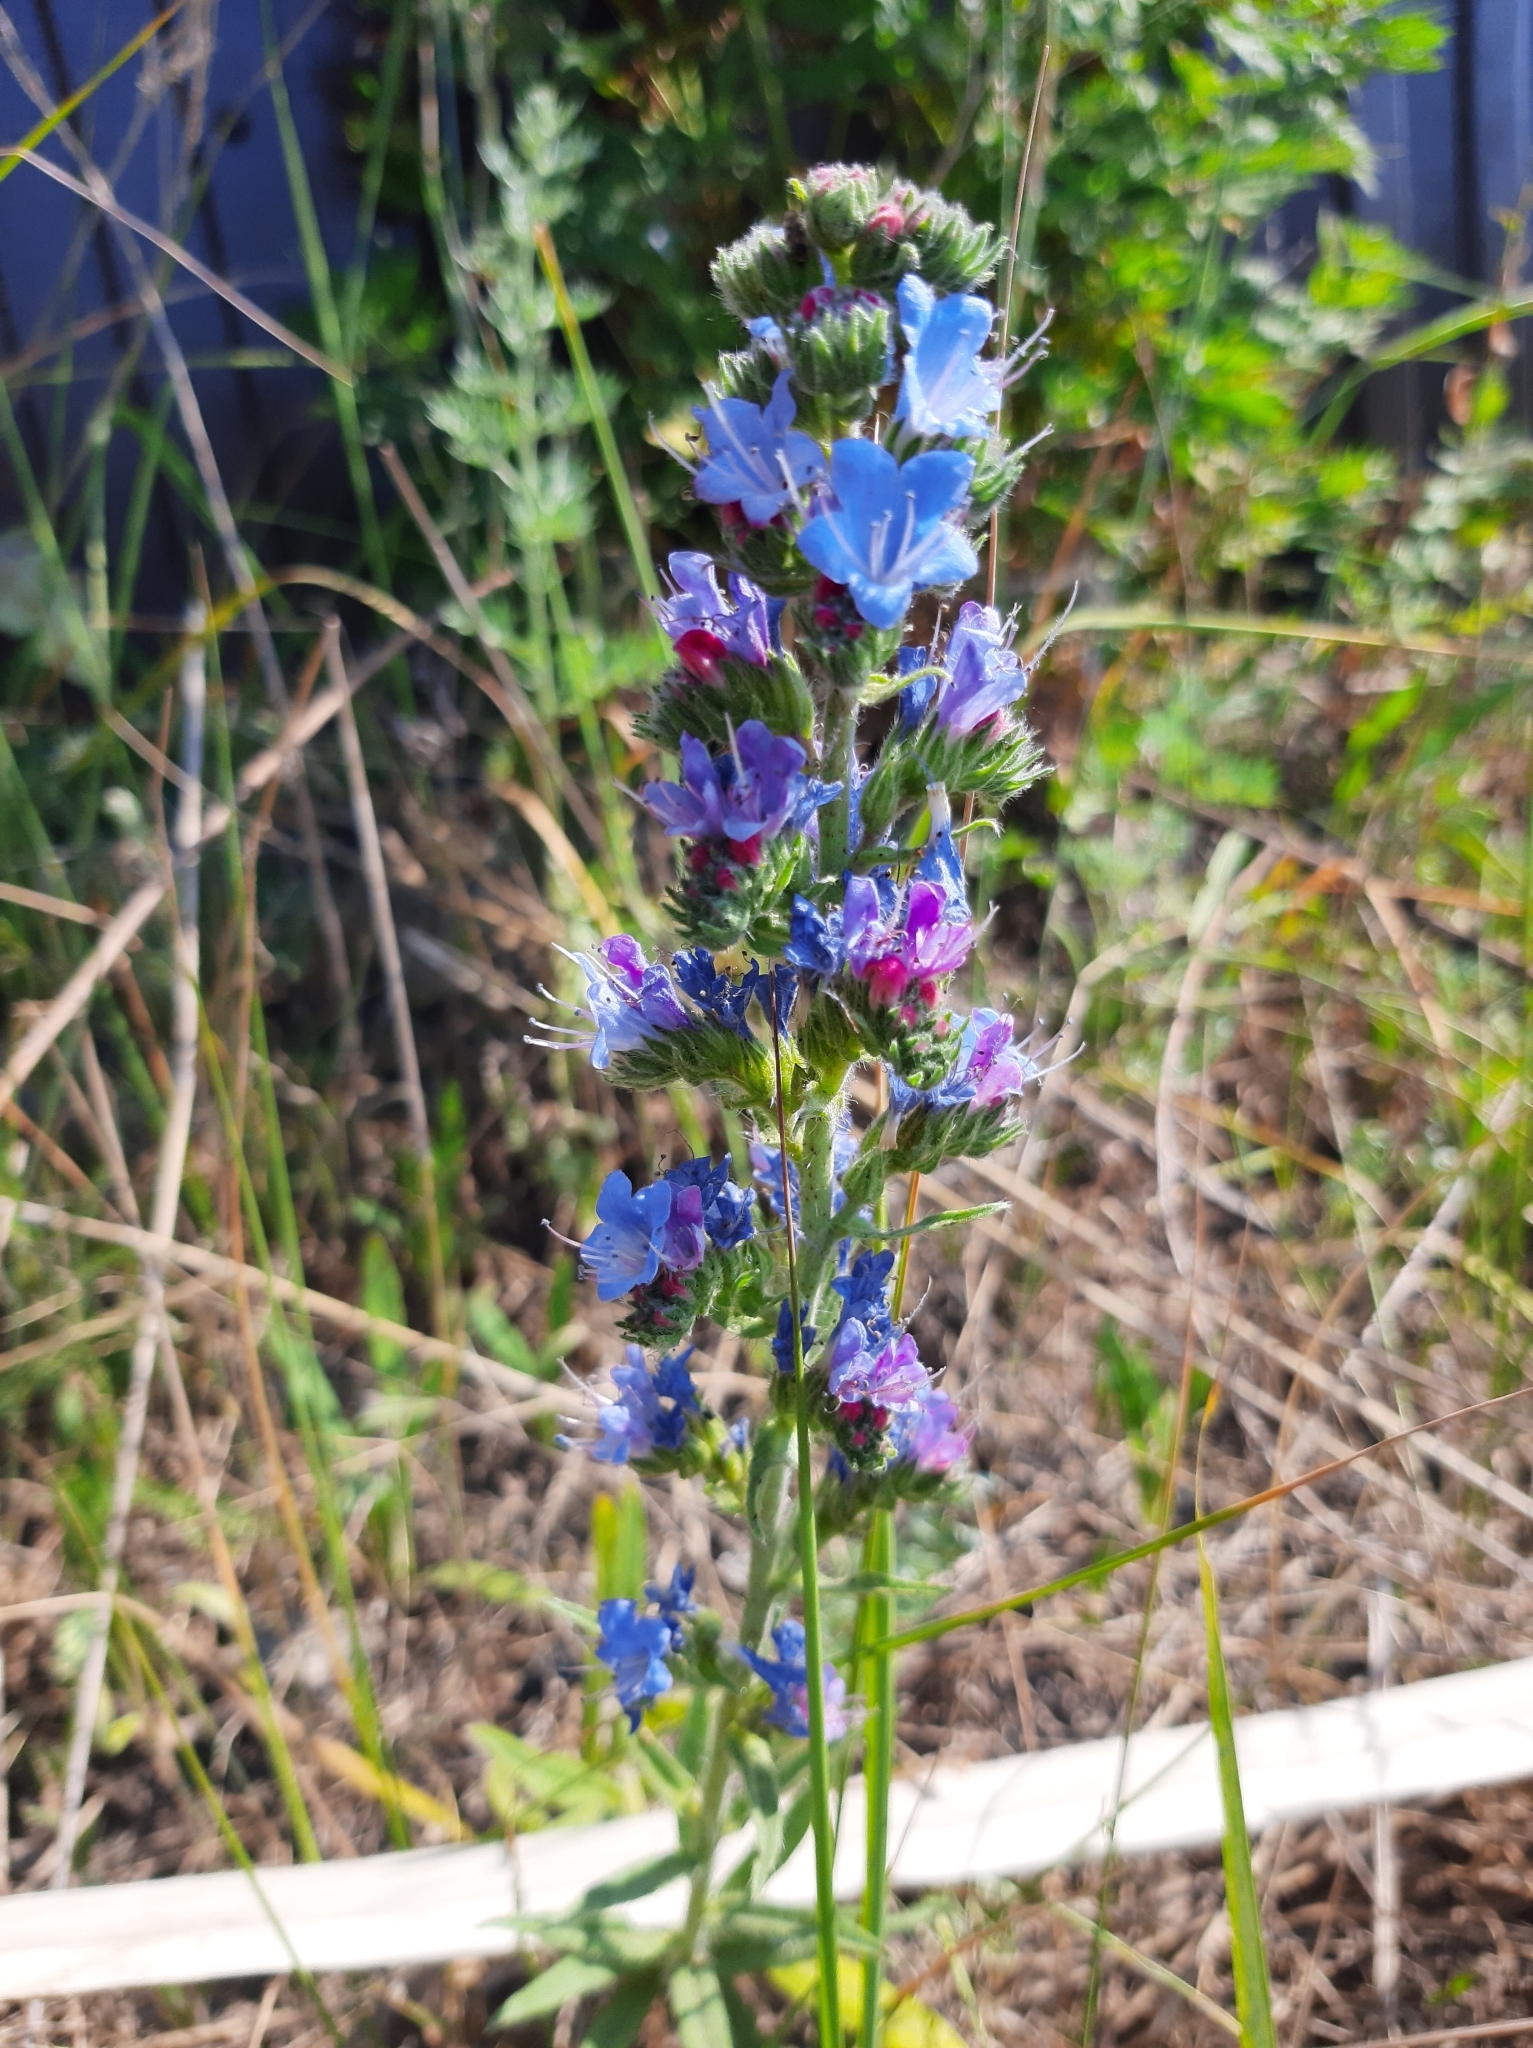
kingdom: Plantae
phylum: Tracheophyta
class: Magnoliopsida
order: Boraginales
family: Boraginaceae
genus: Echium
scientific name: Echium vulgare
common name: Common viper's bugloss
